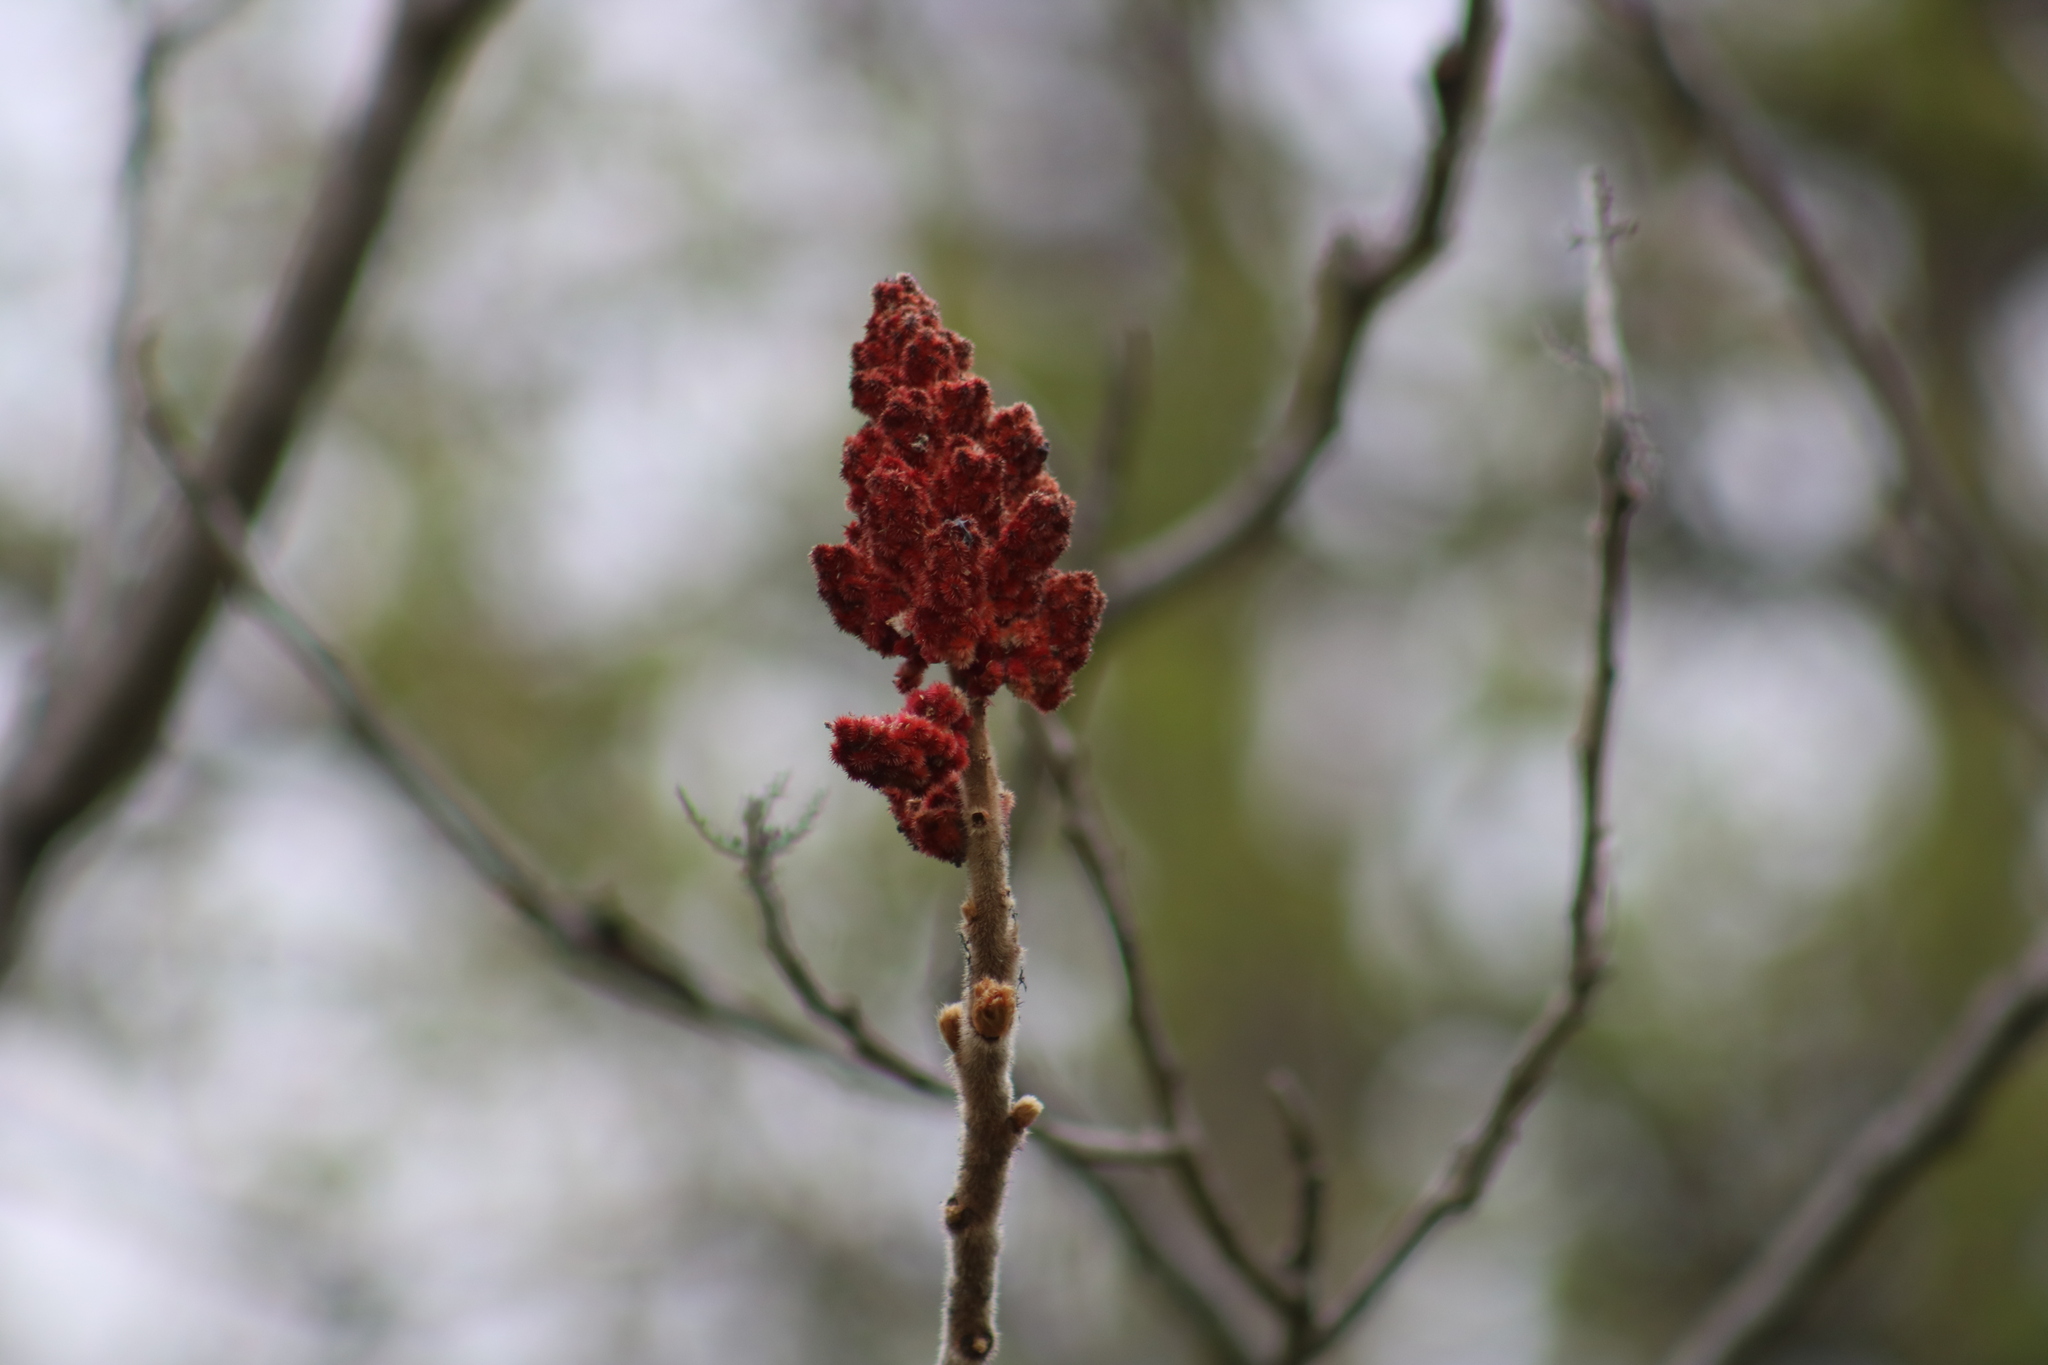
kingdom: Plantae
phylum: Tracheophyta
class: Magnoliopsida
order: Sapindales
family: Anacardiaceae
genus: Rhus
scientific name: Rhus typhina
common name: Staghorn sumac
